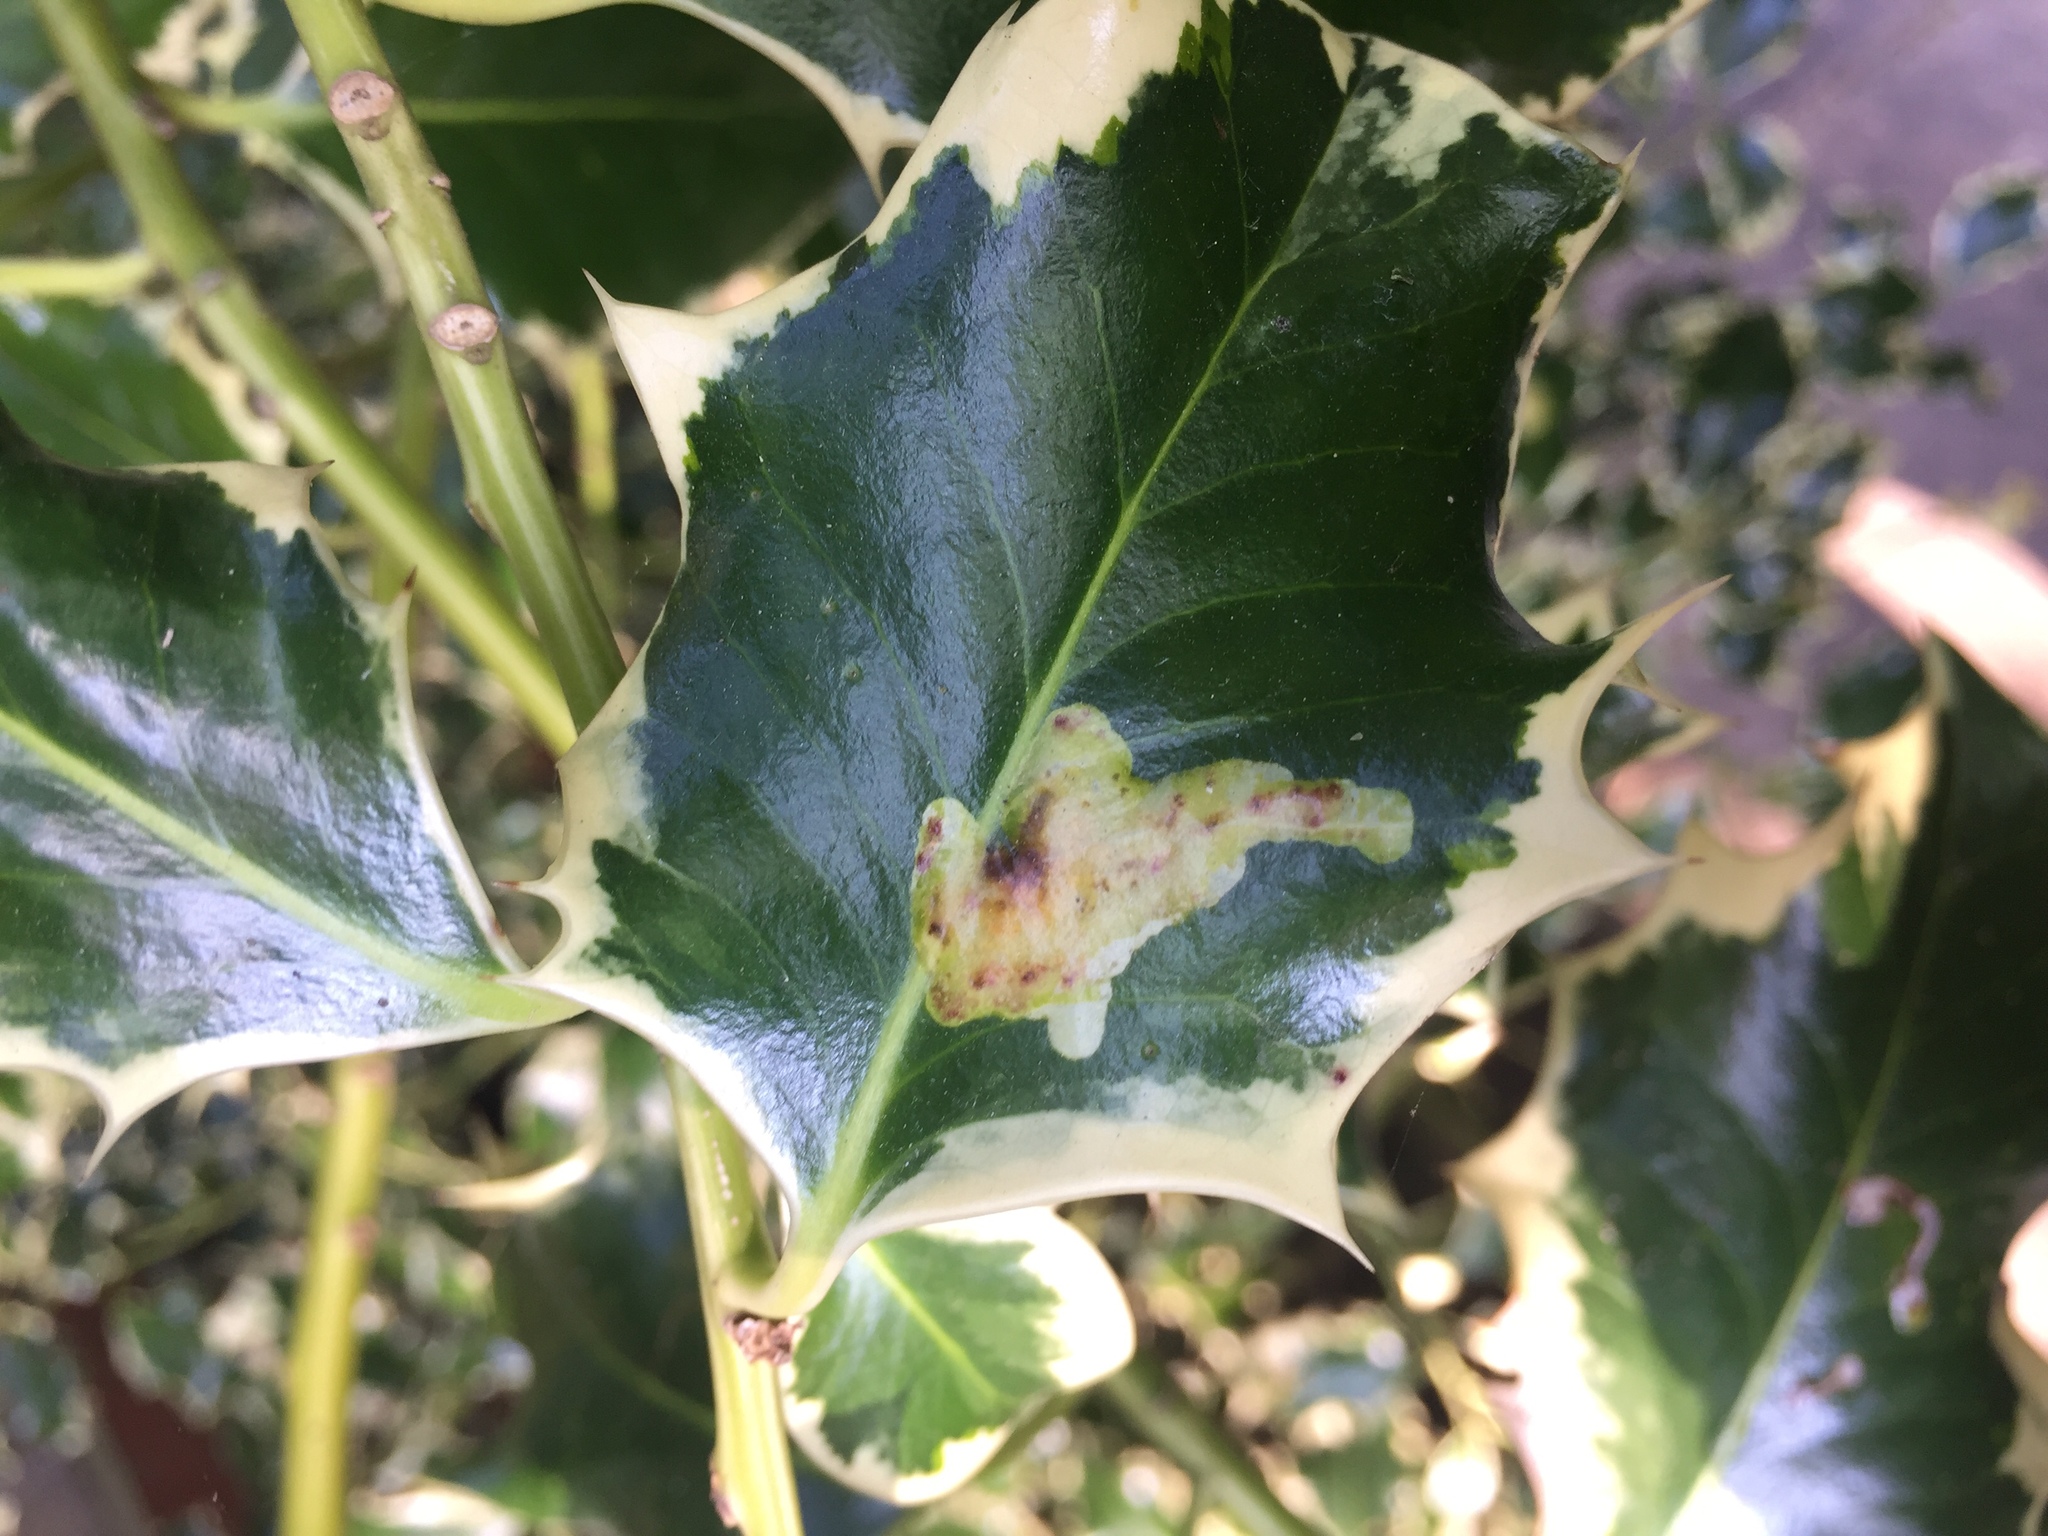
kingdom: Animalia
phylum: Arthropoda
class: Insecta
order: Diptera
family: Agromyzidae
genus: Phytomyza
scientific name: Phytomyza ilicis
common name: Holly leafminer
